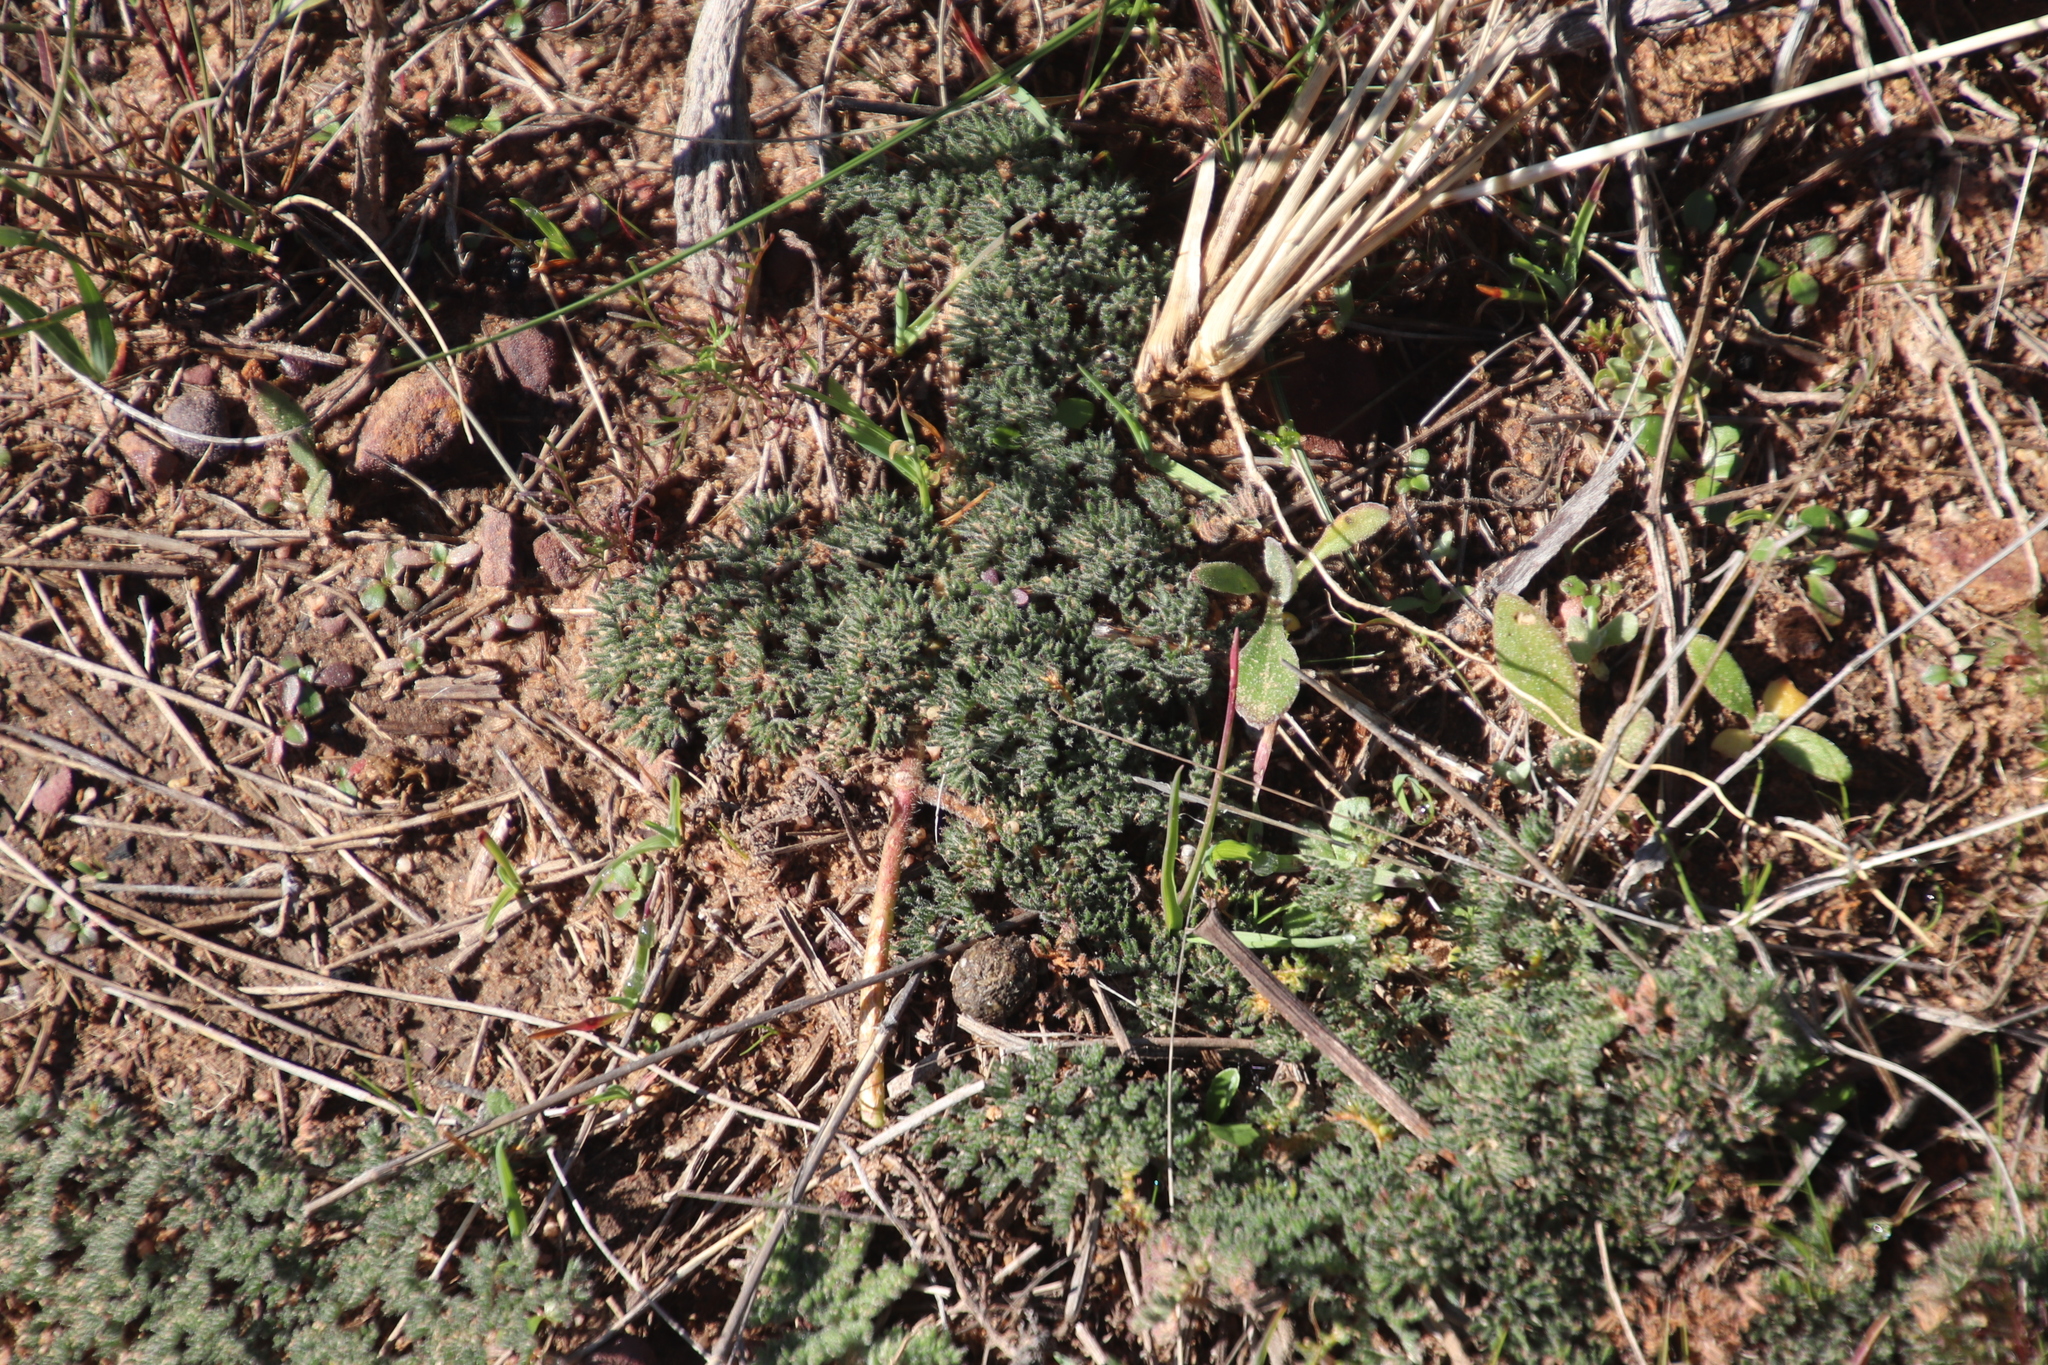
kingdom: Plantae
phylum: Tracheophyta
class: Magnoliopsida
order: Geraniales
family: Geraniaceae
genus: Pelargonium
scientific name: Pelargonium triste
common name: Night-scent pelargonium
